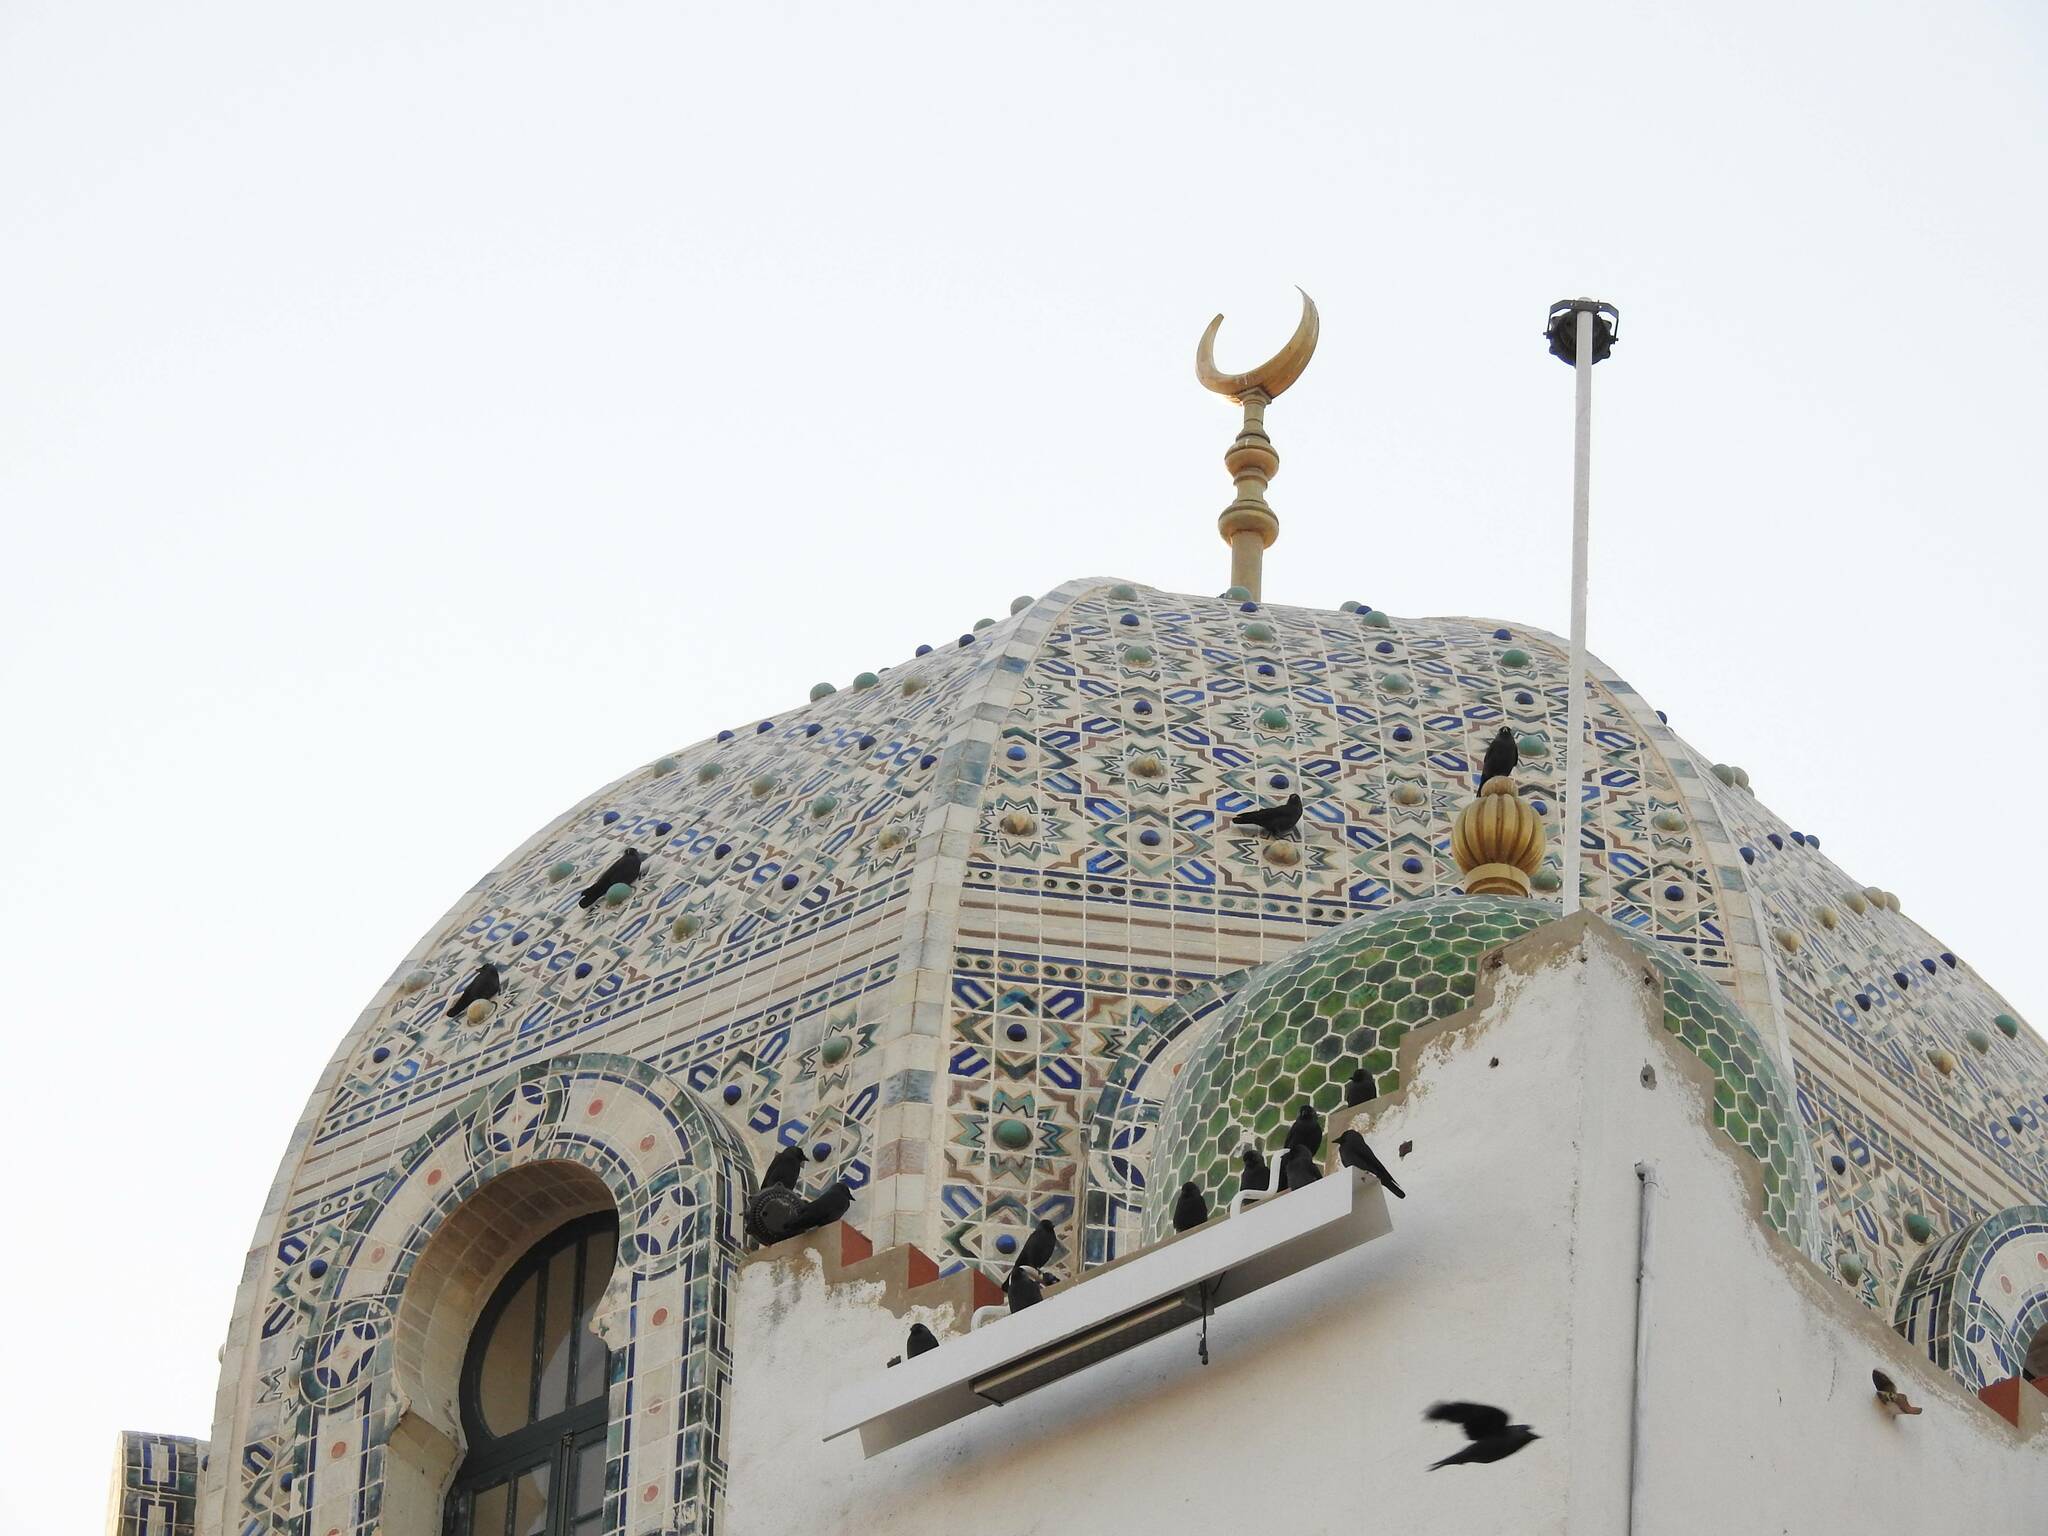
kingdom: Animalia
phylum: Chordata
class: Aves
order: Passeriformes
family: Corvidae
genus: Coloeus
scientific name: Coloeus monedula
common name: Western jackdaw
